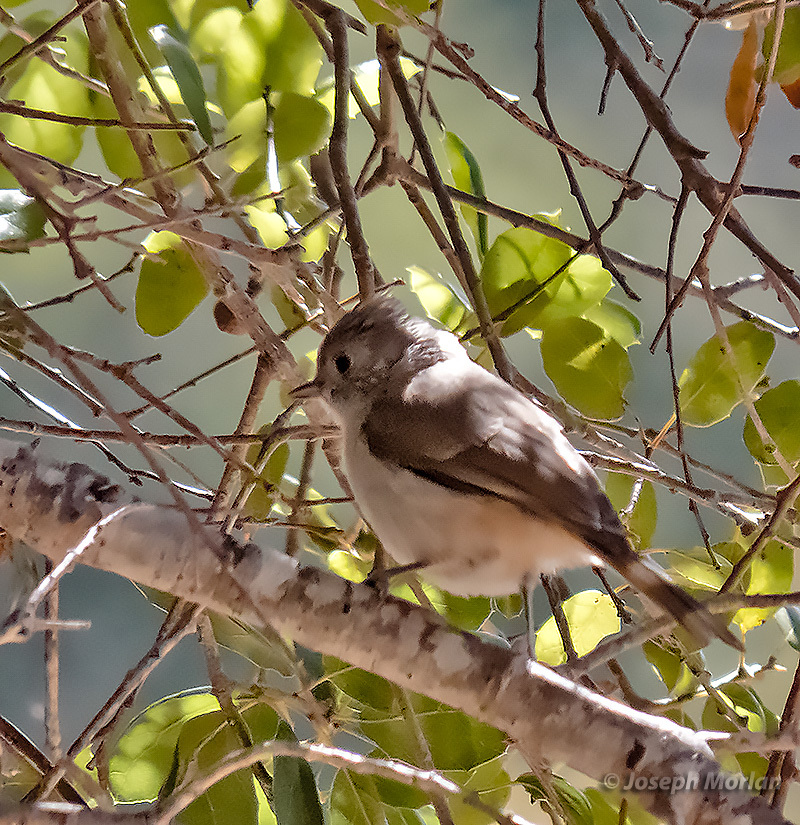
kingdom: Animalia
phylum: Chordata
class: Aves
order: Passeriformes
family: Paridae
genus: Baeolophus
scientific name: Baeolophus inornatus
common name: Oak titmouse
